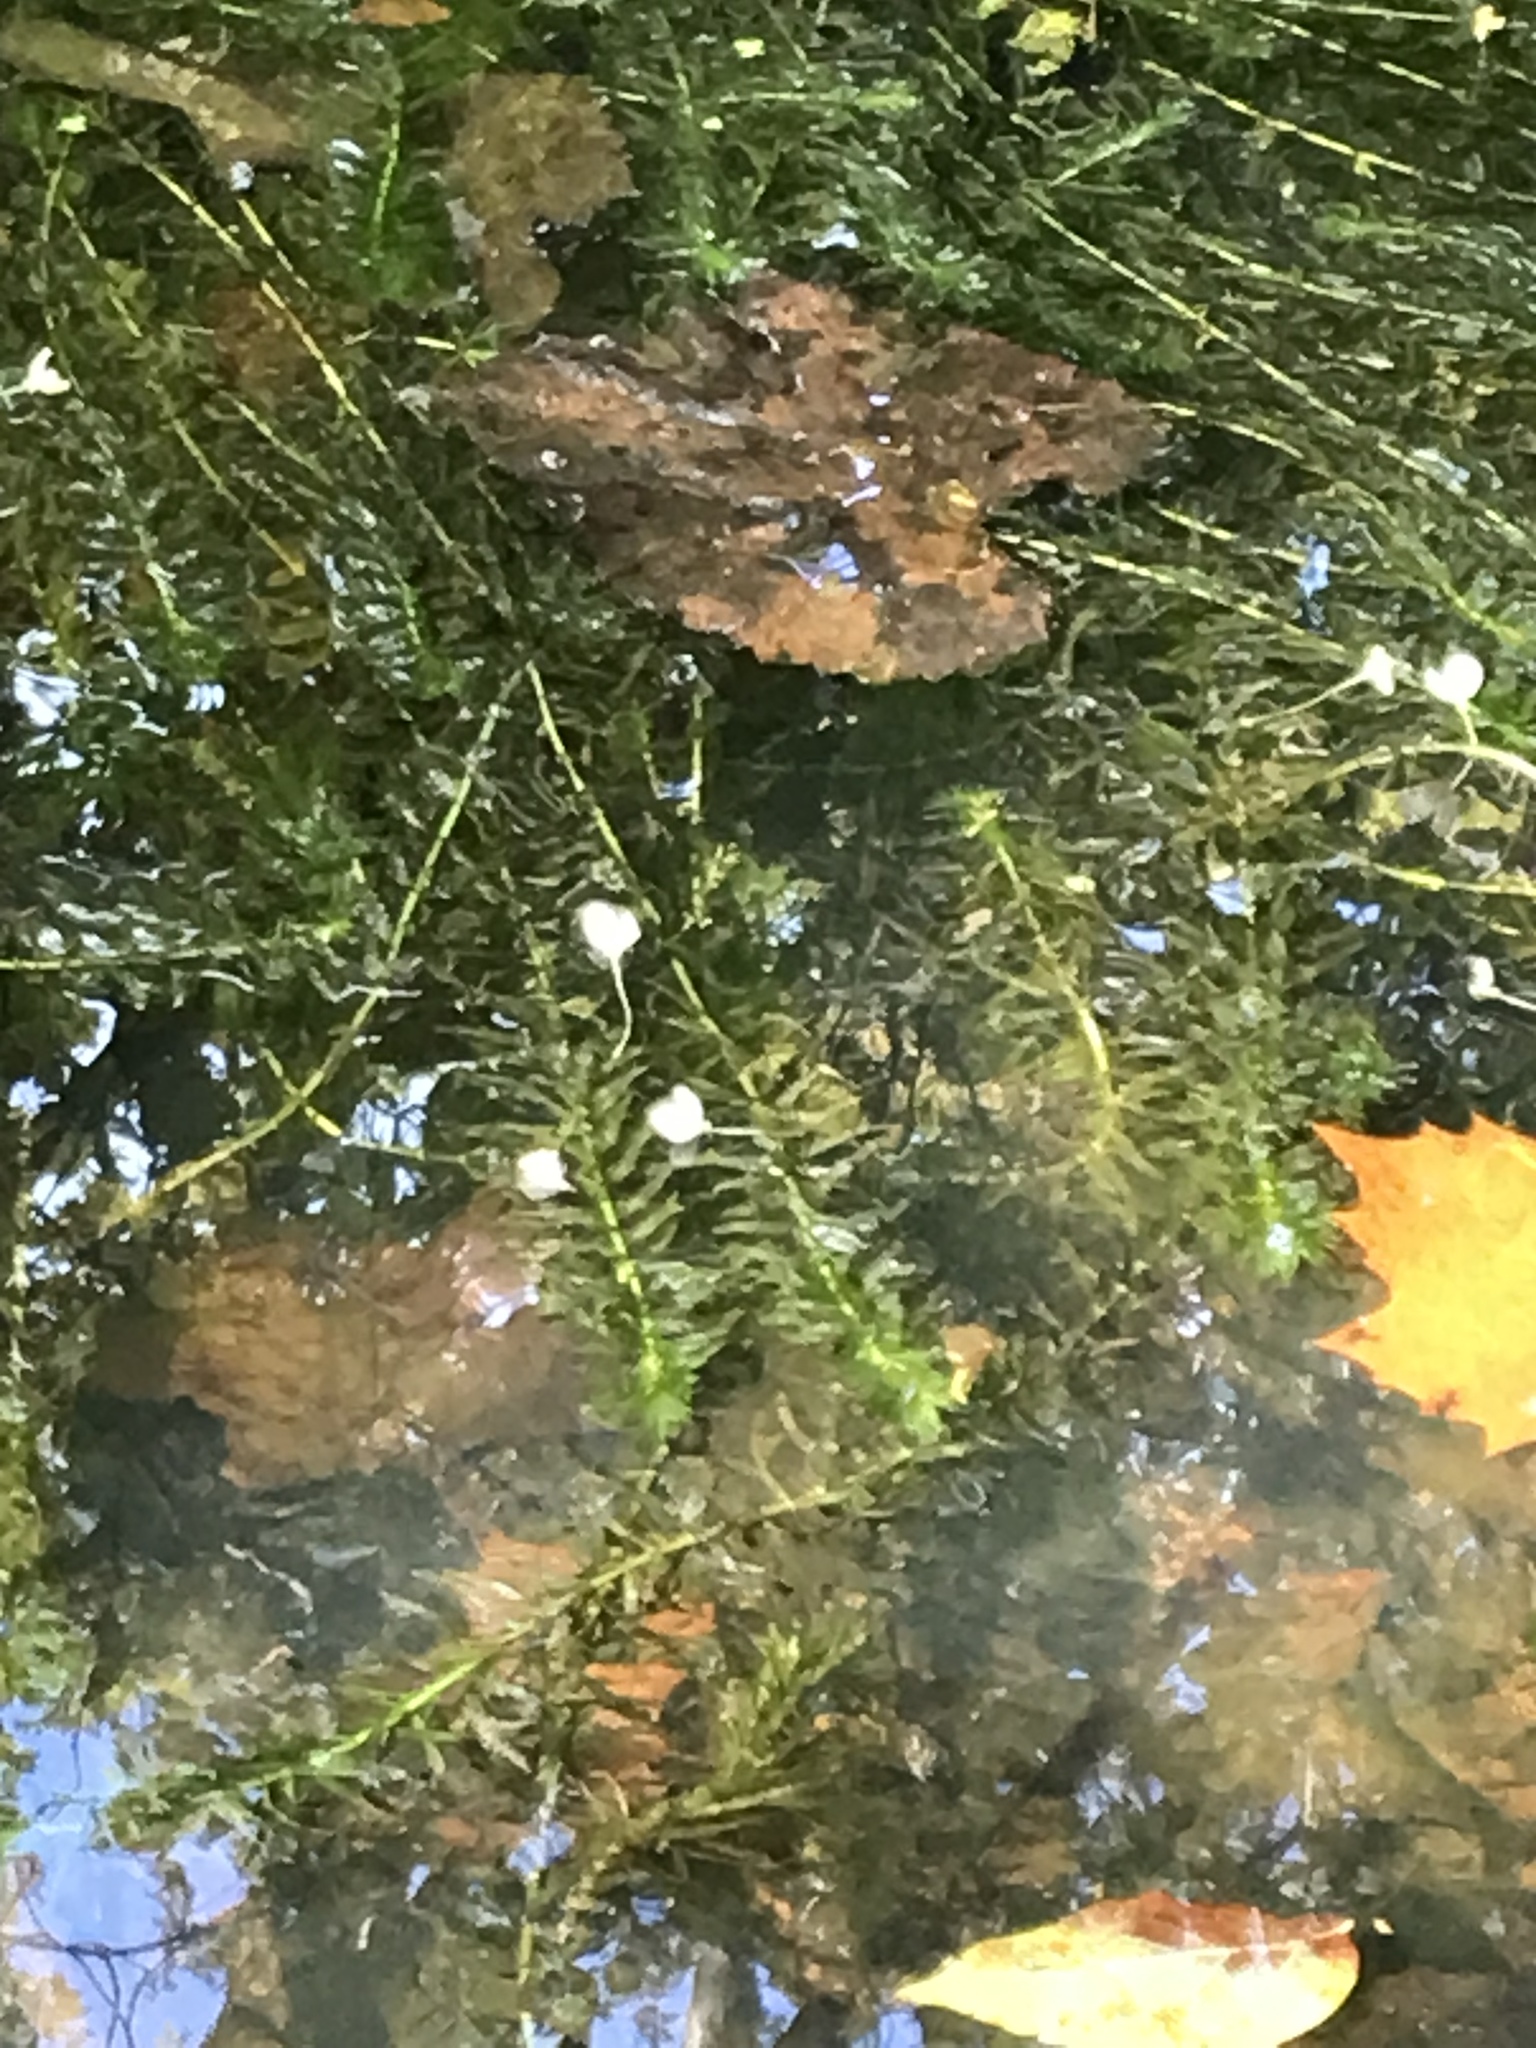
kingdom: Plantae
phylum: Tracheophyta
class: Liliopsida
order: Alismatales
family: Hydrocharitaceae
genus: Elodea
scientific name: Elodea densa
